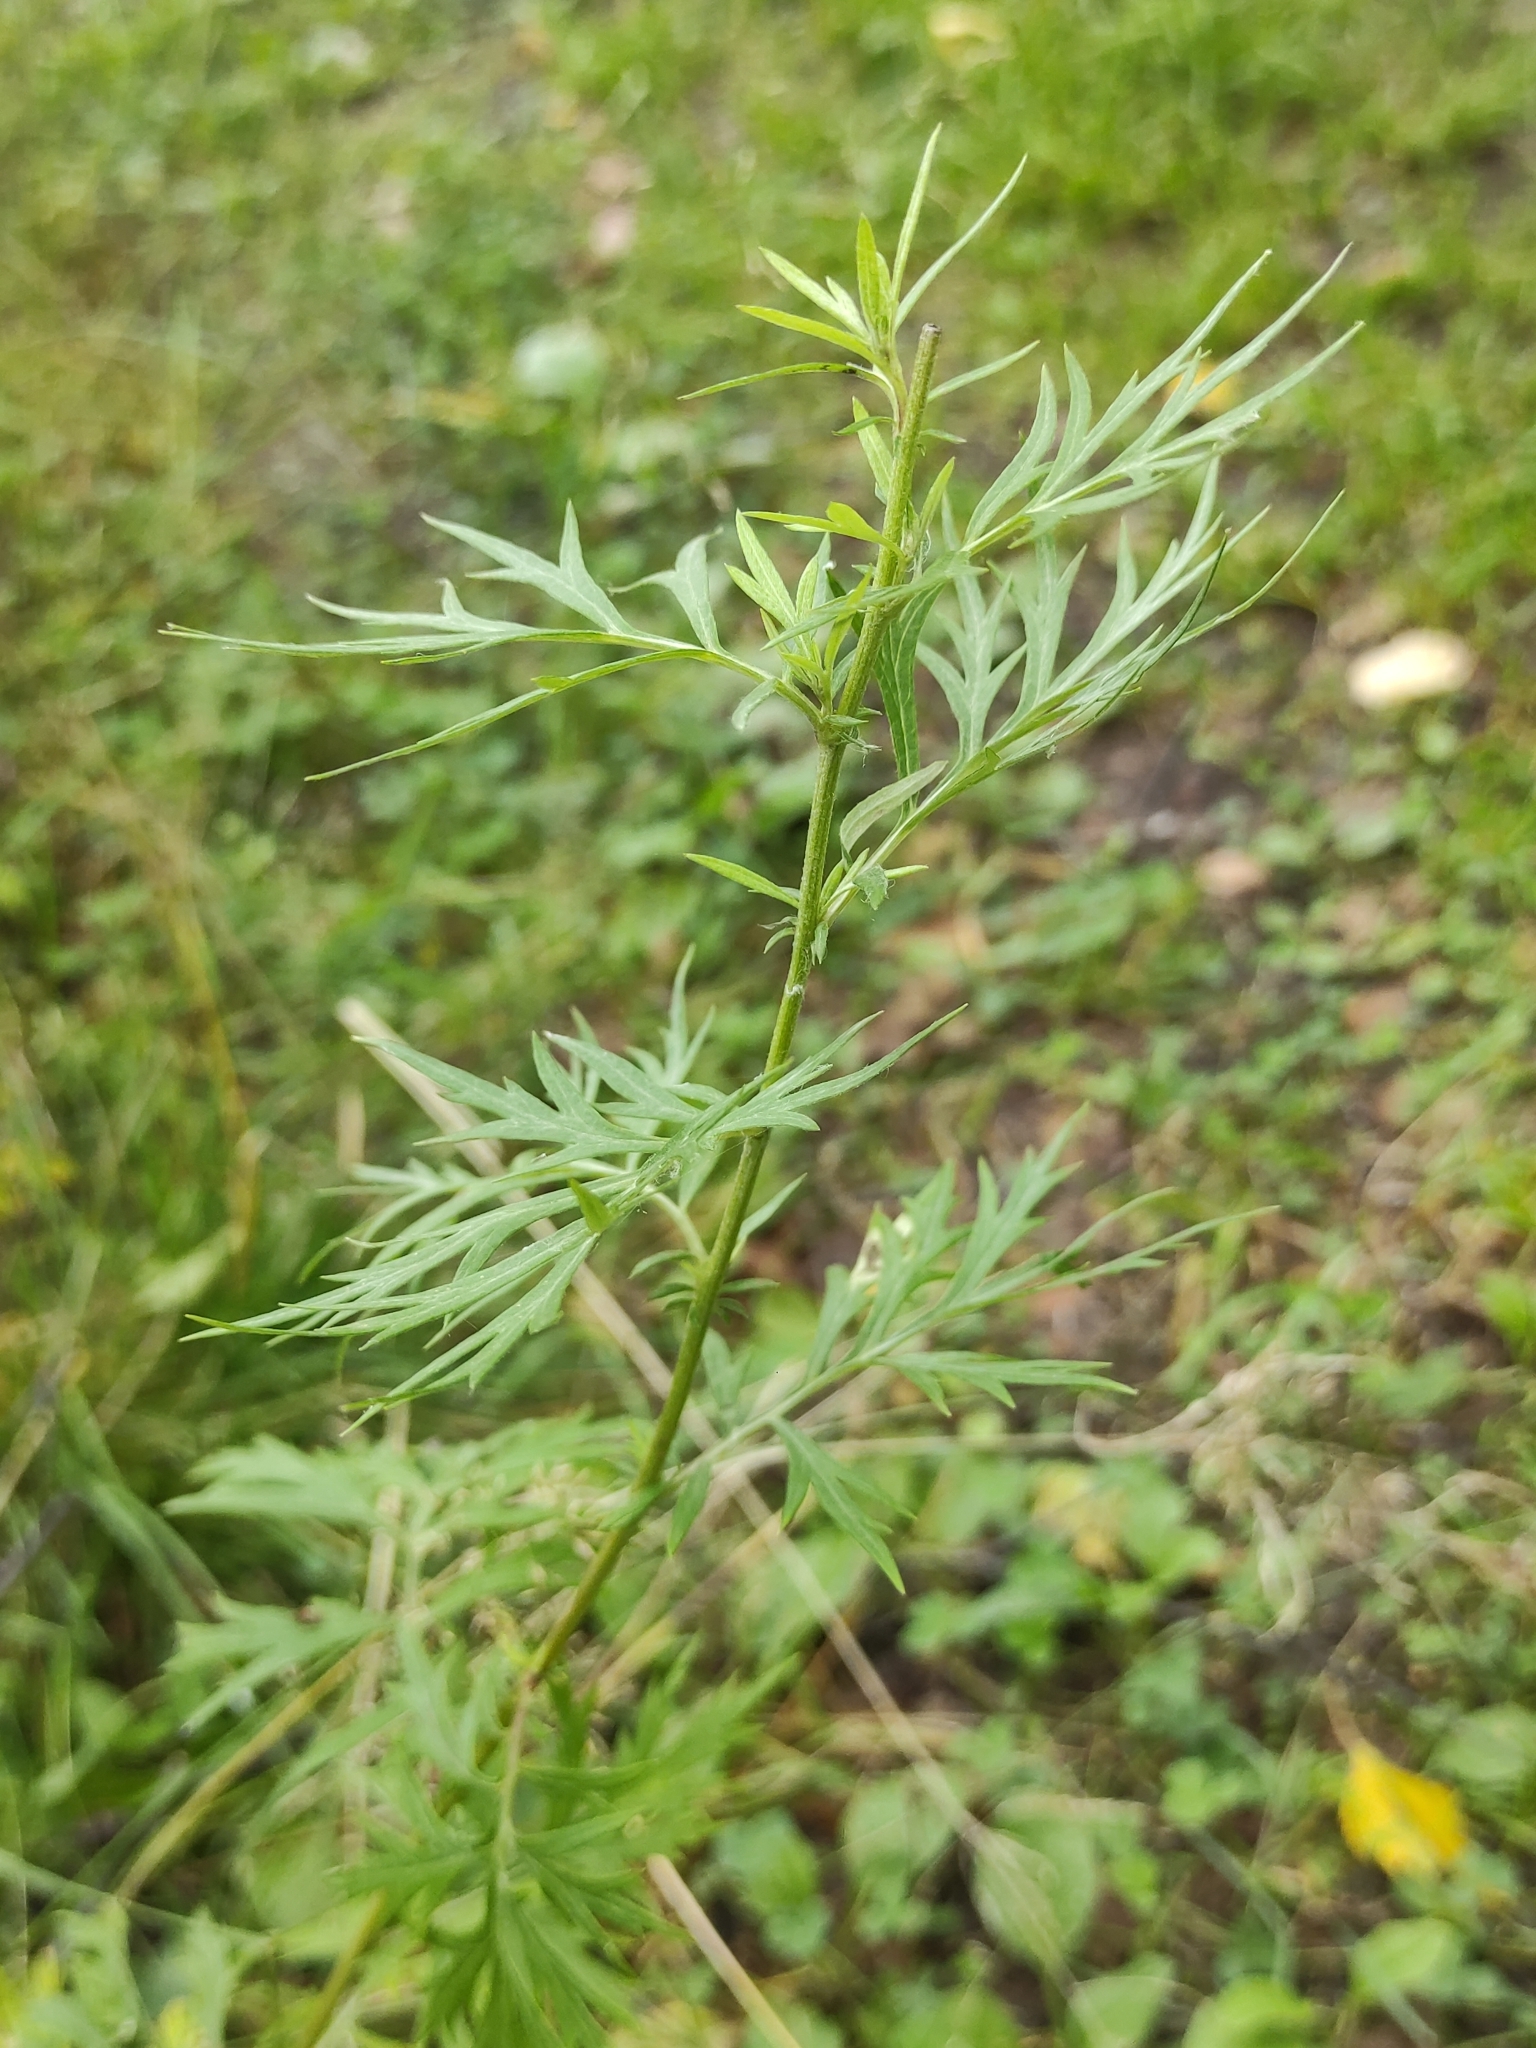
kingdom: Plantae
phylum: Tracheophyta
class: Magnoliopsida
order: Asterales
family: Asteraceae
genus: Artemisia
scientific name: Artemisia vulgaris
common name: Mugwort
